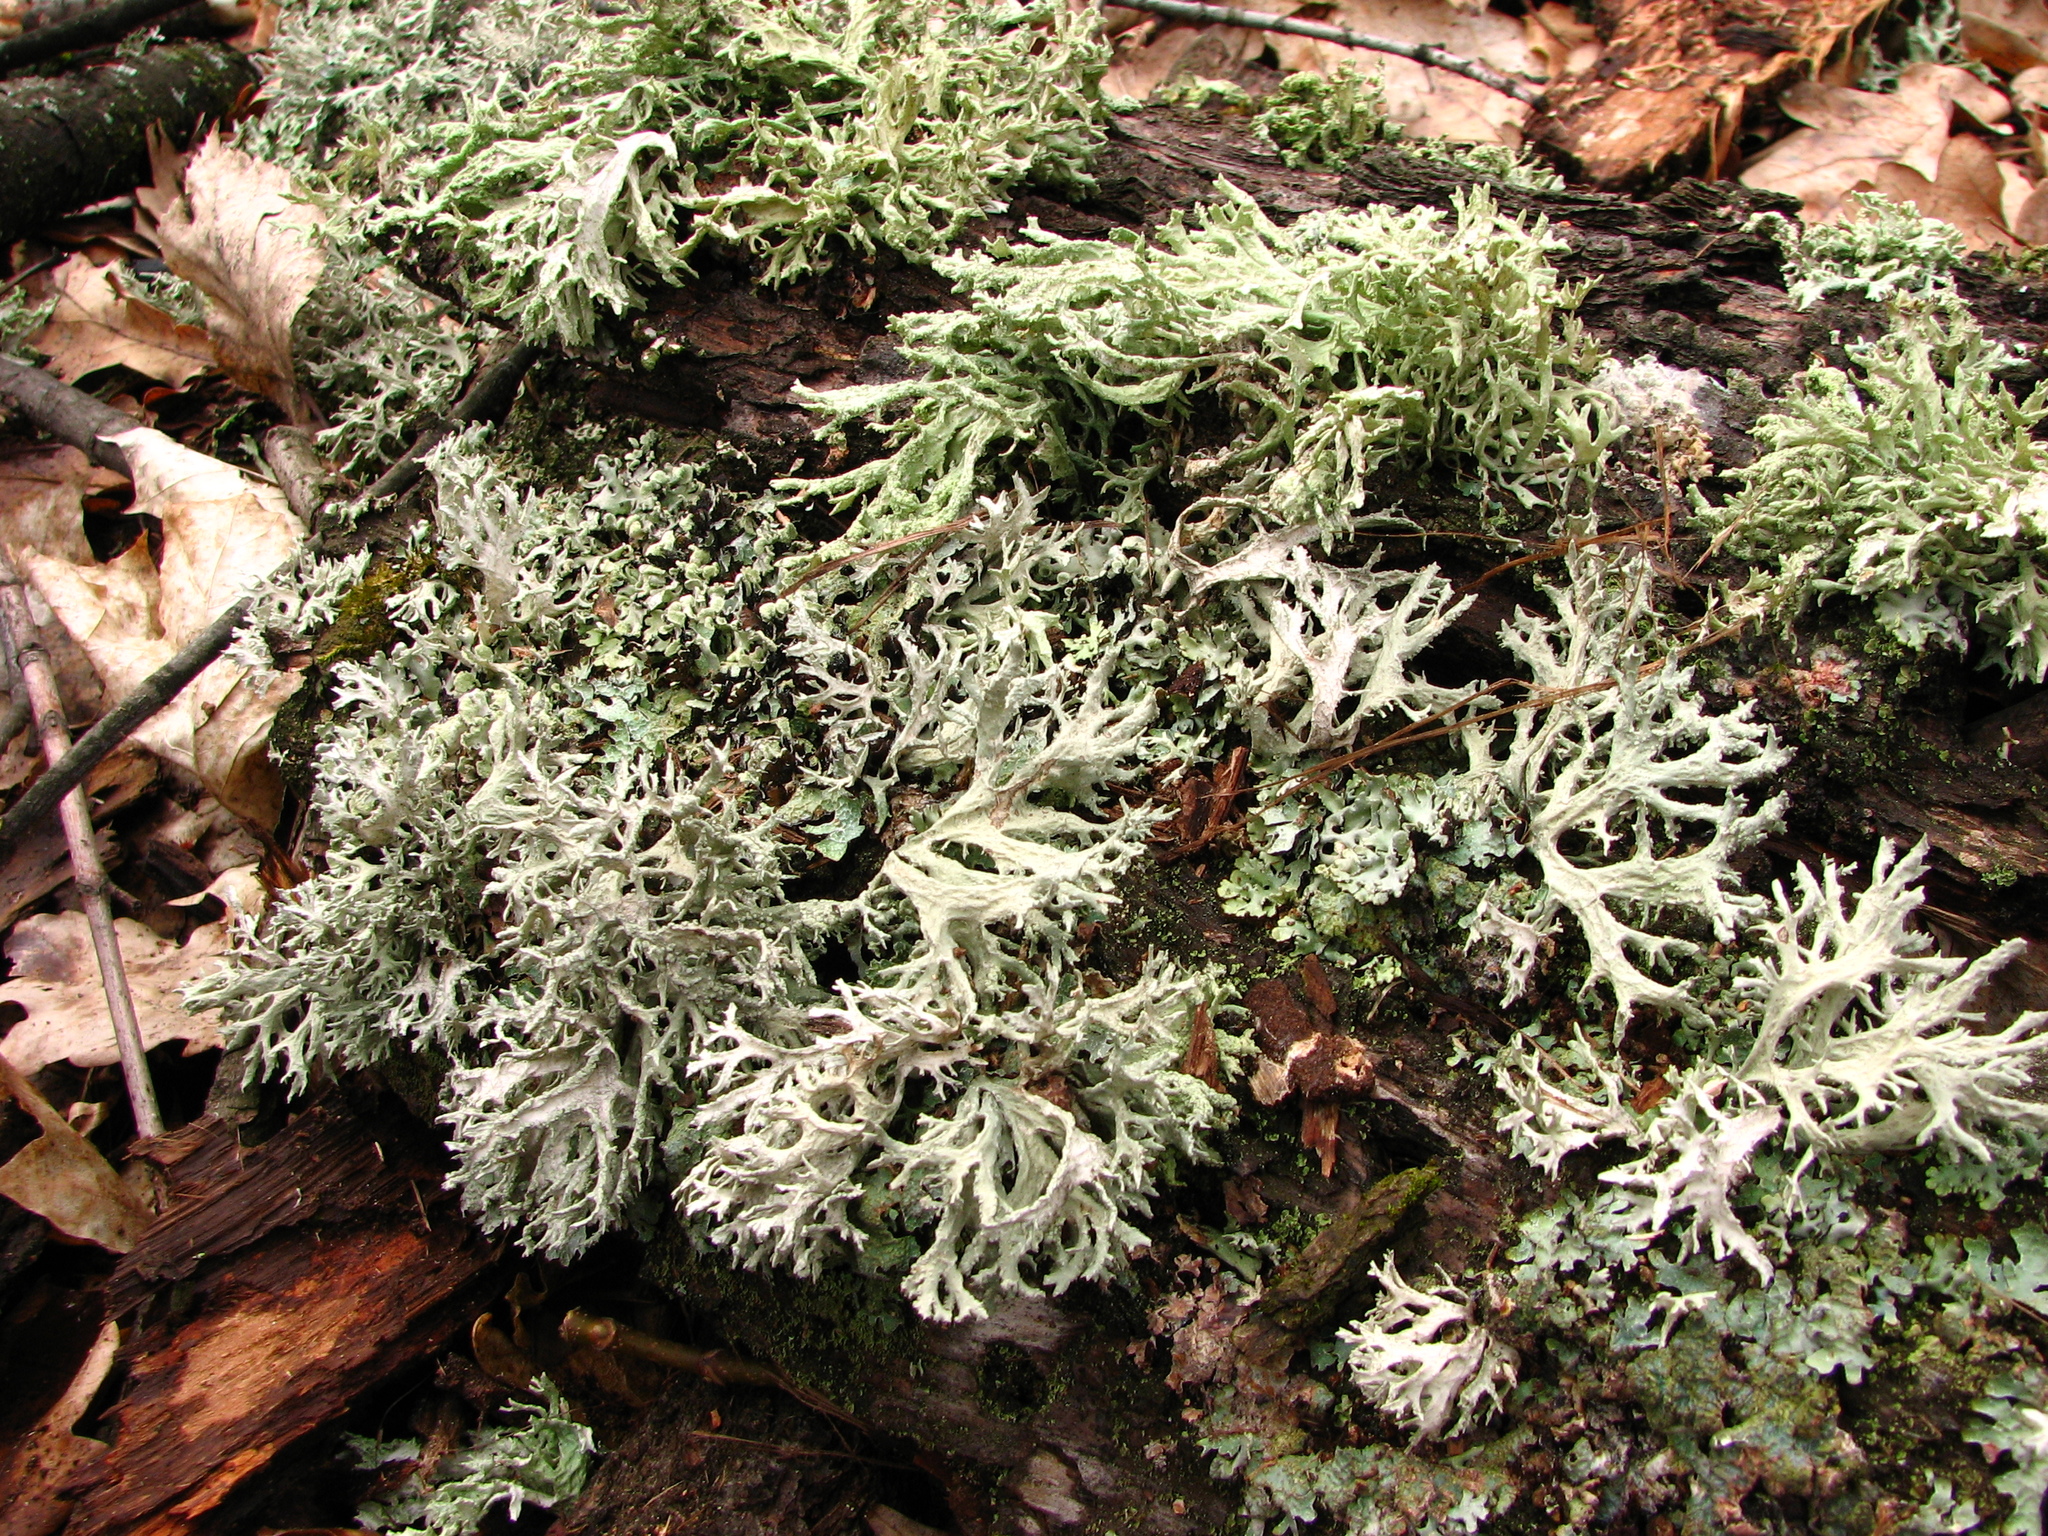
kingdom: Fungi
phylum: Ascomycota
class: Lecanoromycetes
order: Lecanorales
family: Parmeliaceae
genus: Evernia
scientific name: Evernia prunastri
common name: Oak moss
